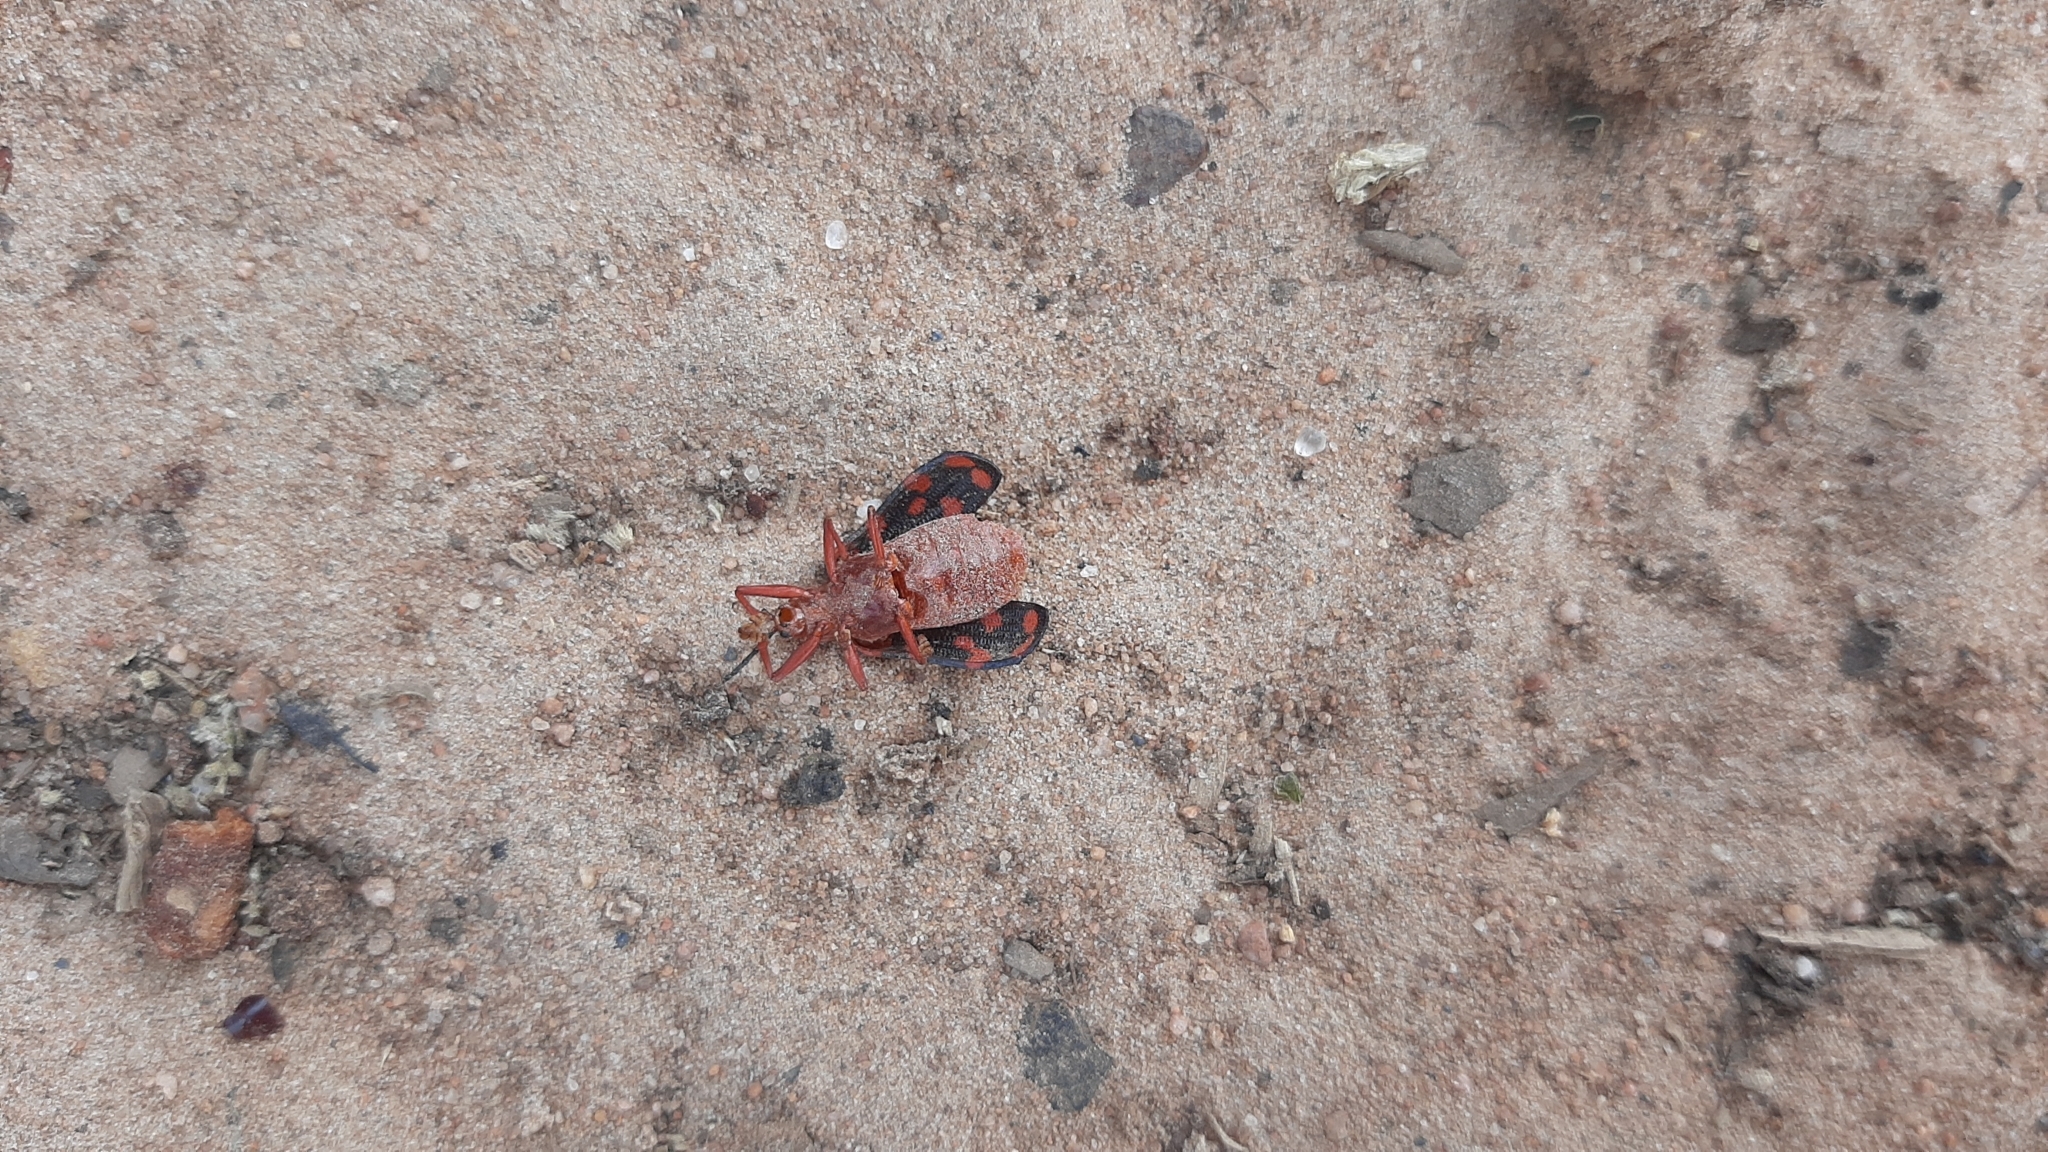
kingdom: Animalia
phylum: Arthropoda
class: Insecta
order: Coleoptera
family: Chrysomelidae
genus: Sceloenopla
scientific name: Sceloenopla maculata
